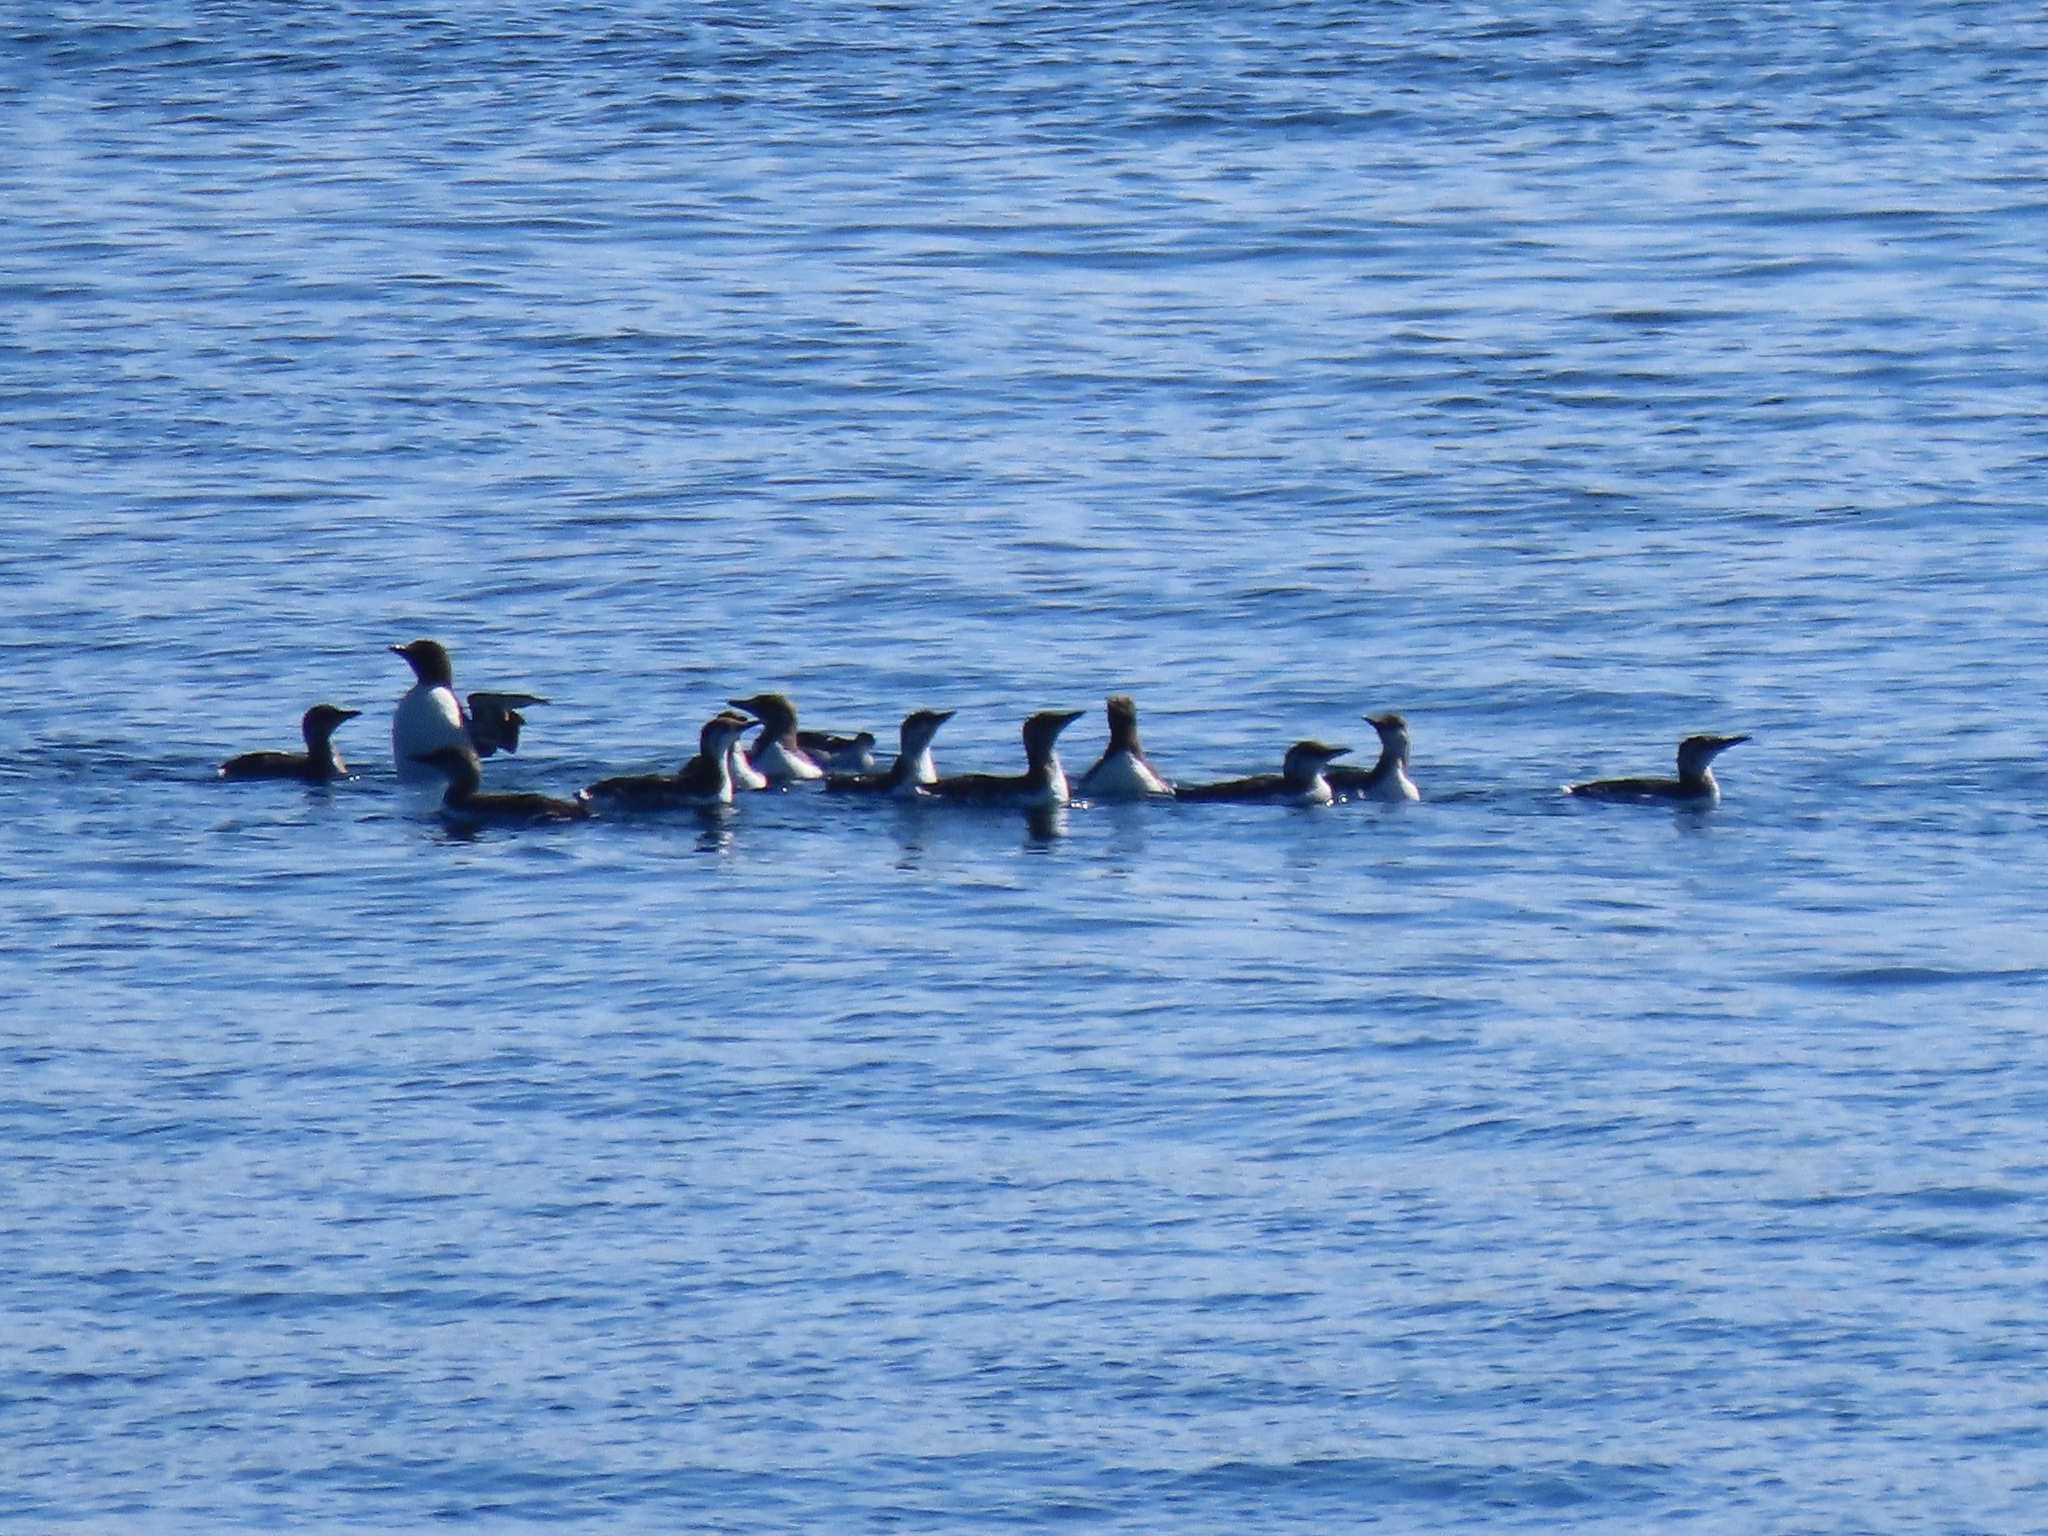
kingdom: Animalia
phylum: Chordata
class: Aves
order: Charadriiformes
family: Alcidae
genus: Uria
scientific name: Uria aalge
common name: Common murre
